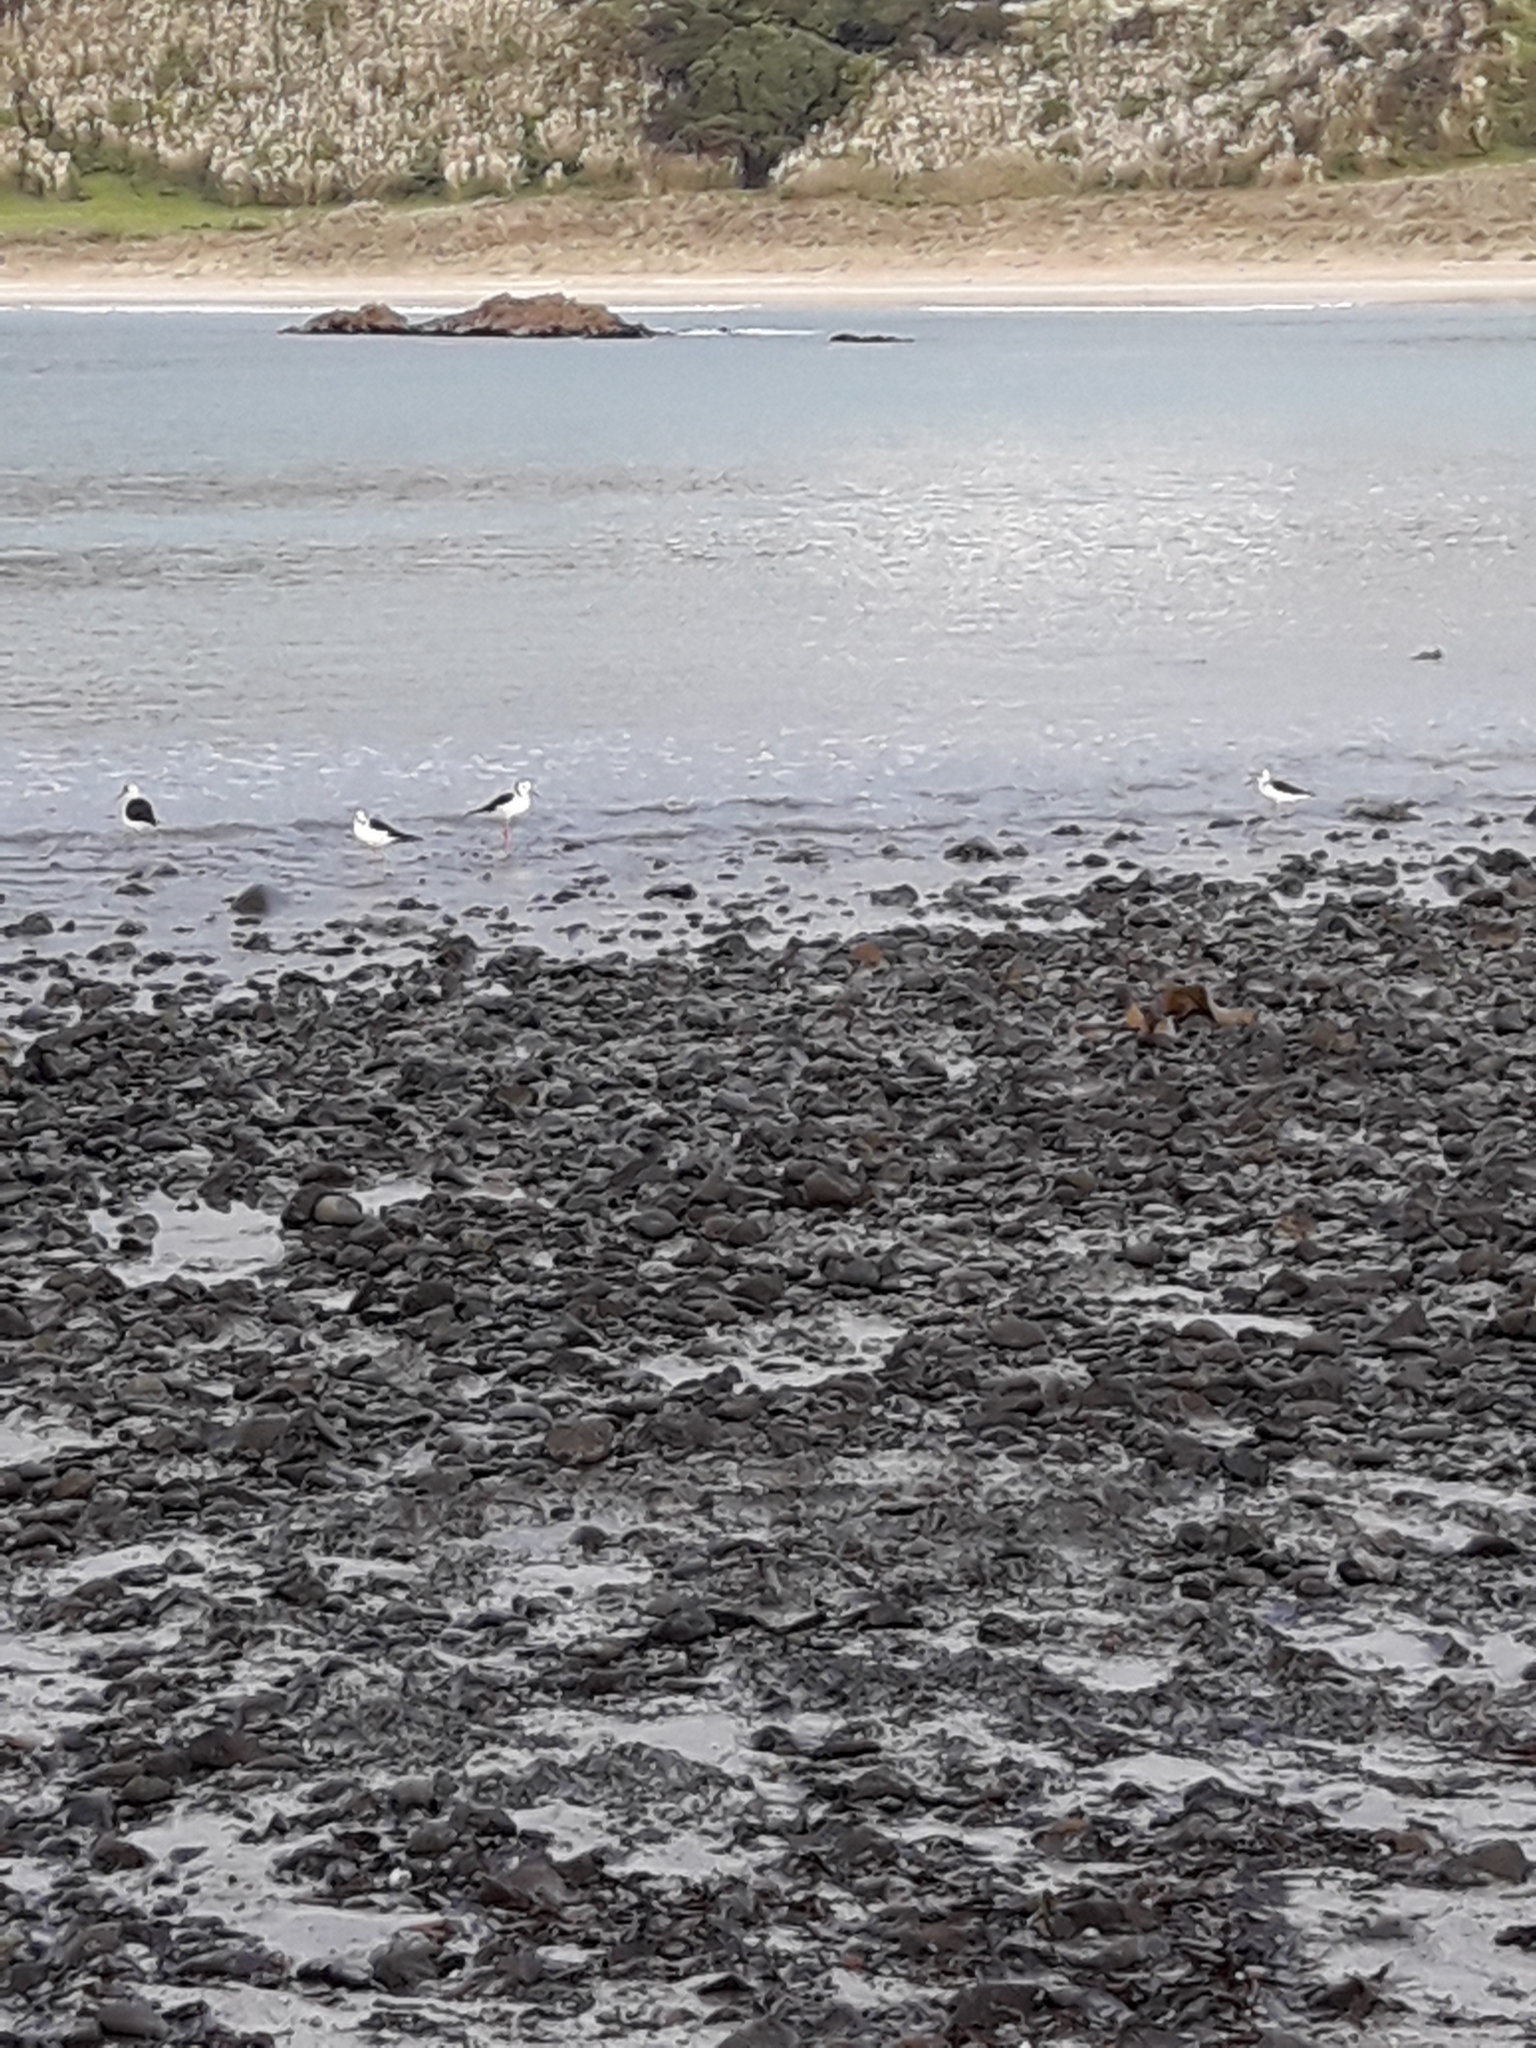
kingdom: Animalia
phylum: Chordata
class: Aves
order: Charadriiformes
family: Recurvirostridae
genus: Himantopus
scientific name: Himantopus leucocephalus
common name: White-headed stilt
